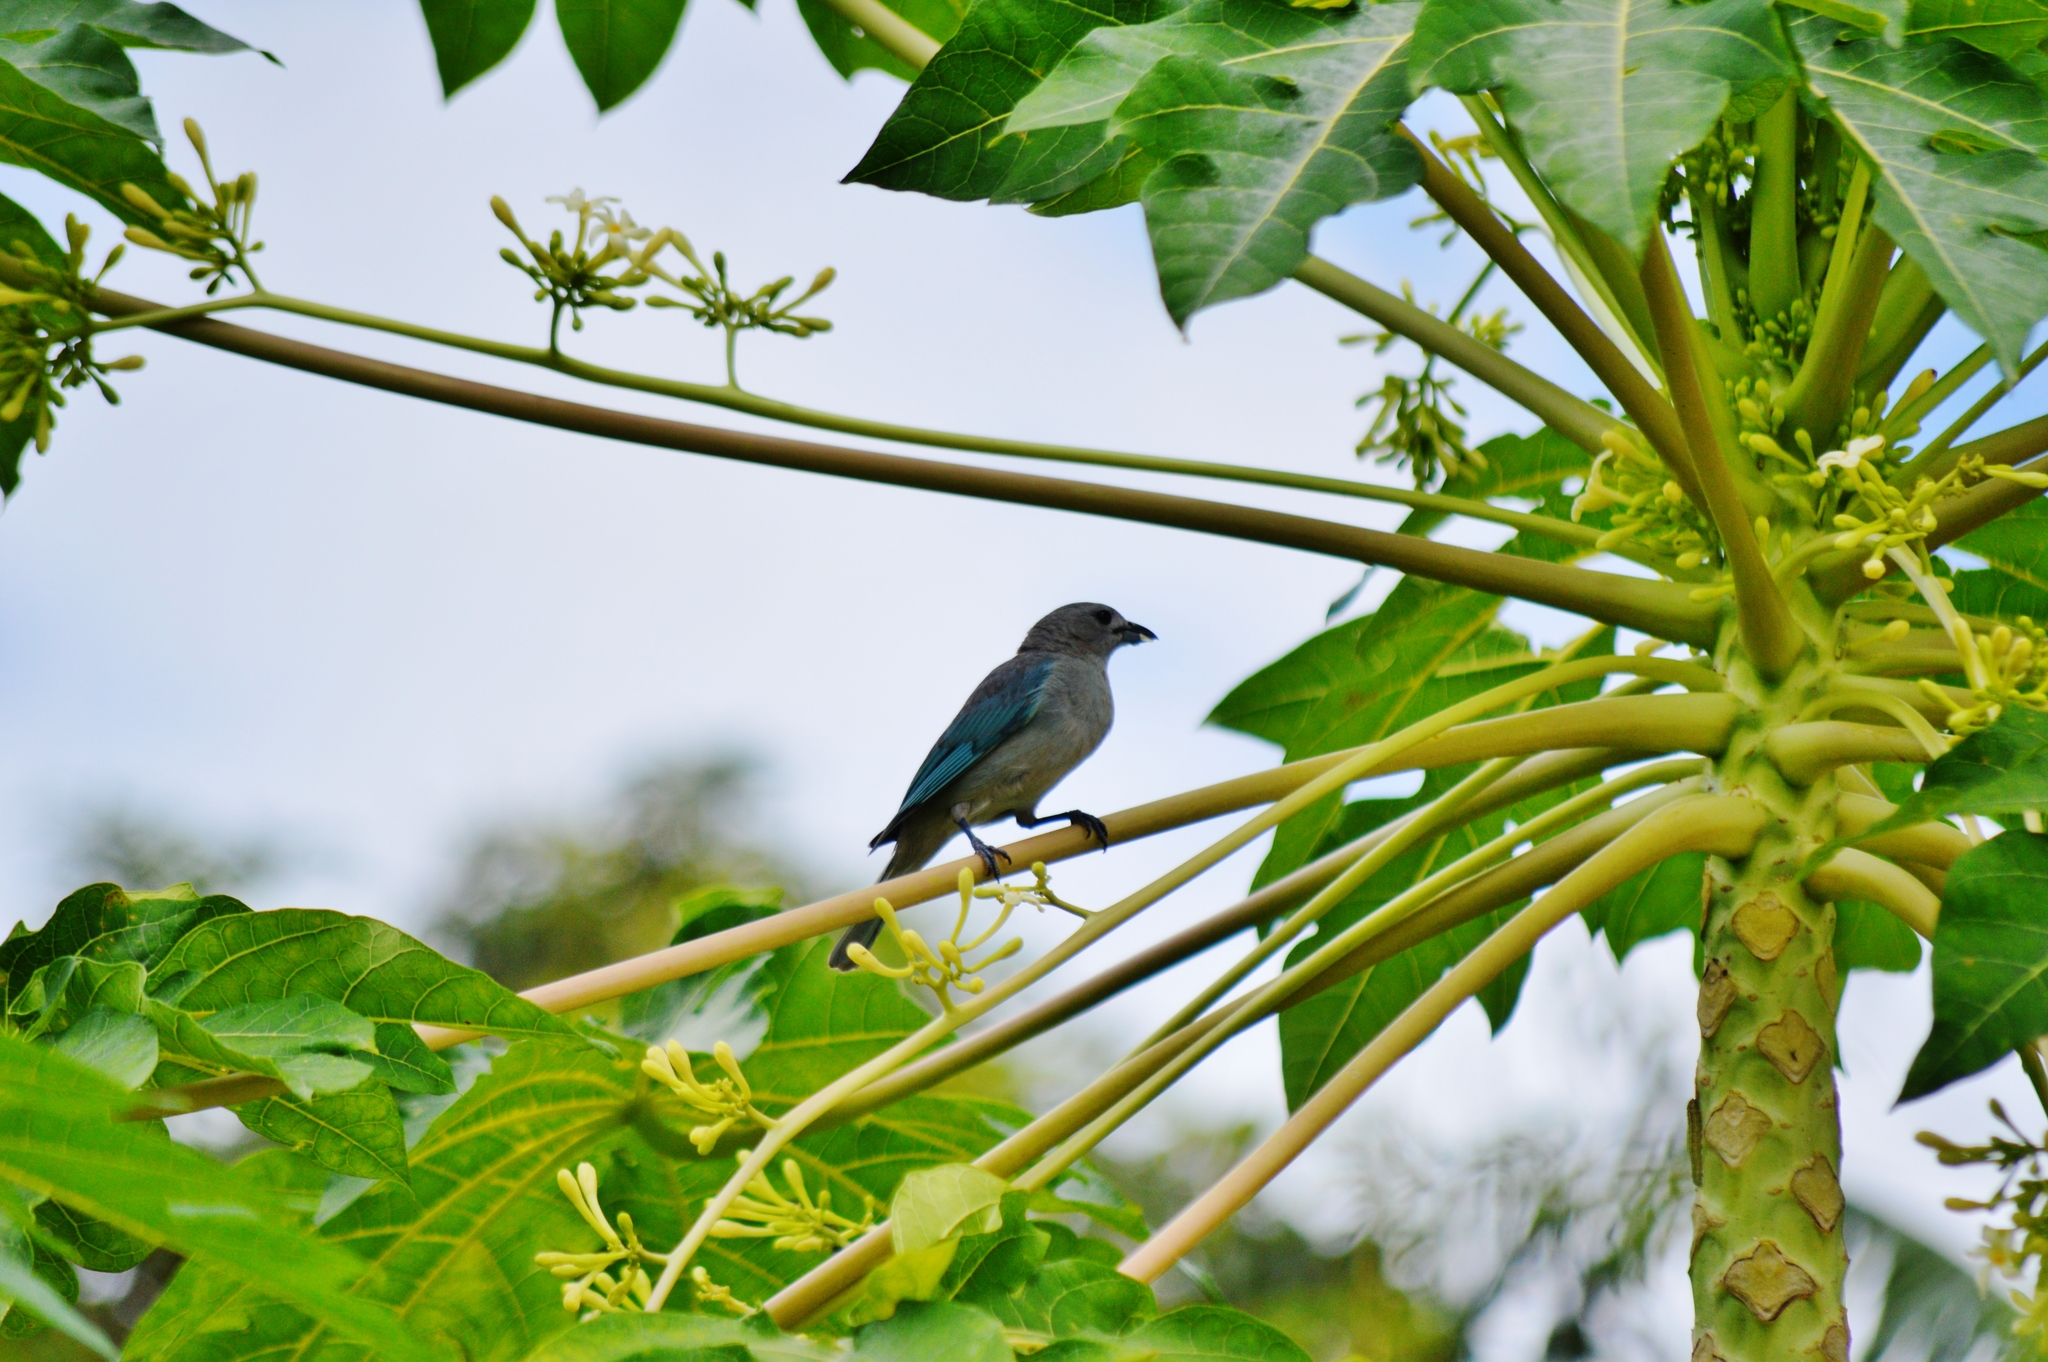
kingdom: Animalia
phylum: Chordata
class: Aves
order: Passeriformes
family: Thraupidae
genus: Thraupis
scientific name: Thraupis sayaca
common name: Sayaca tanager
